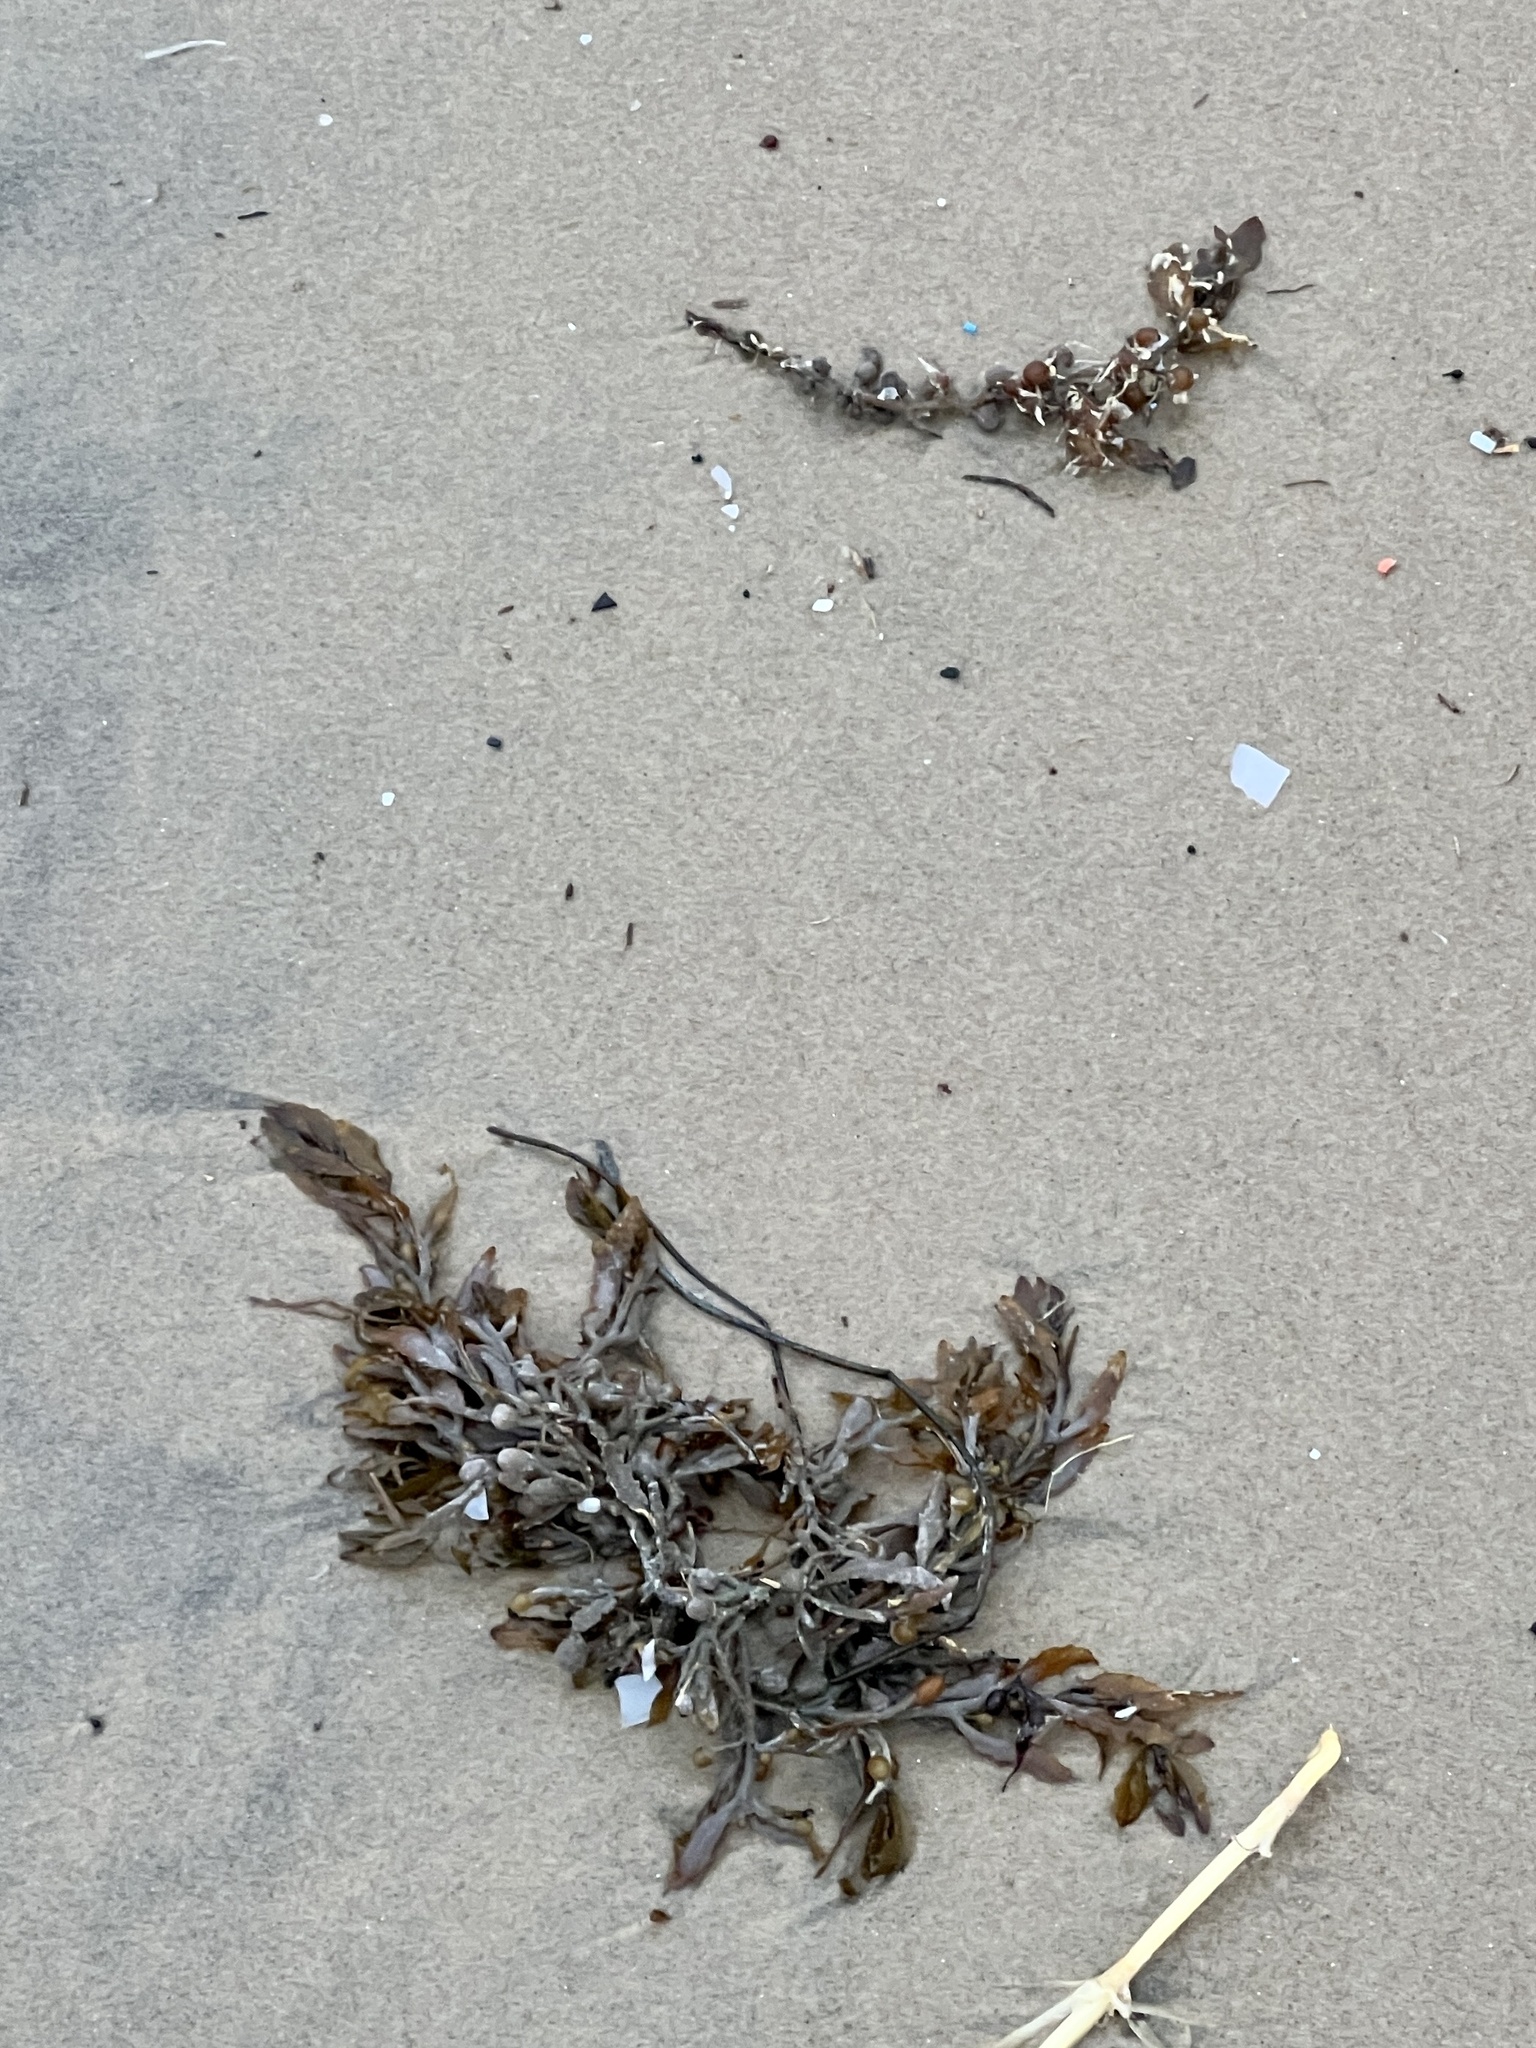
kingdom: Chromista
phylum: Ochrophyta
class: Phaeophyceae
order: Fucales
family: Sargassaceae
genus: Sargassum
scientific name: Sargassum fluitans
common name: Sargassum seaweed
